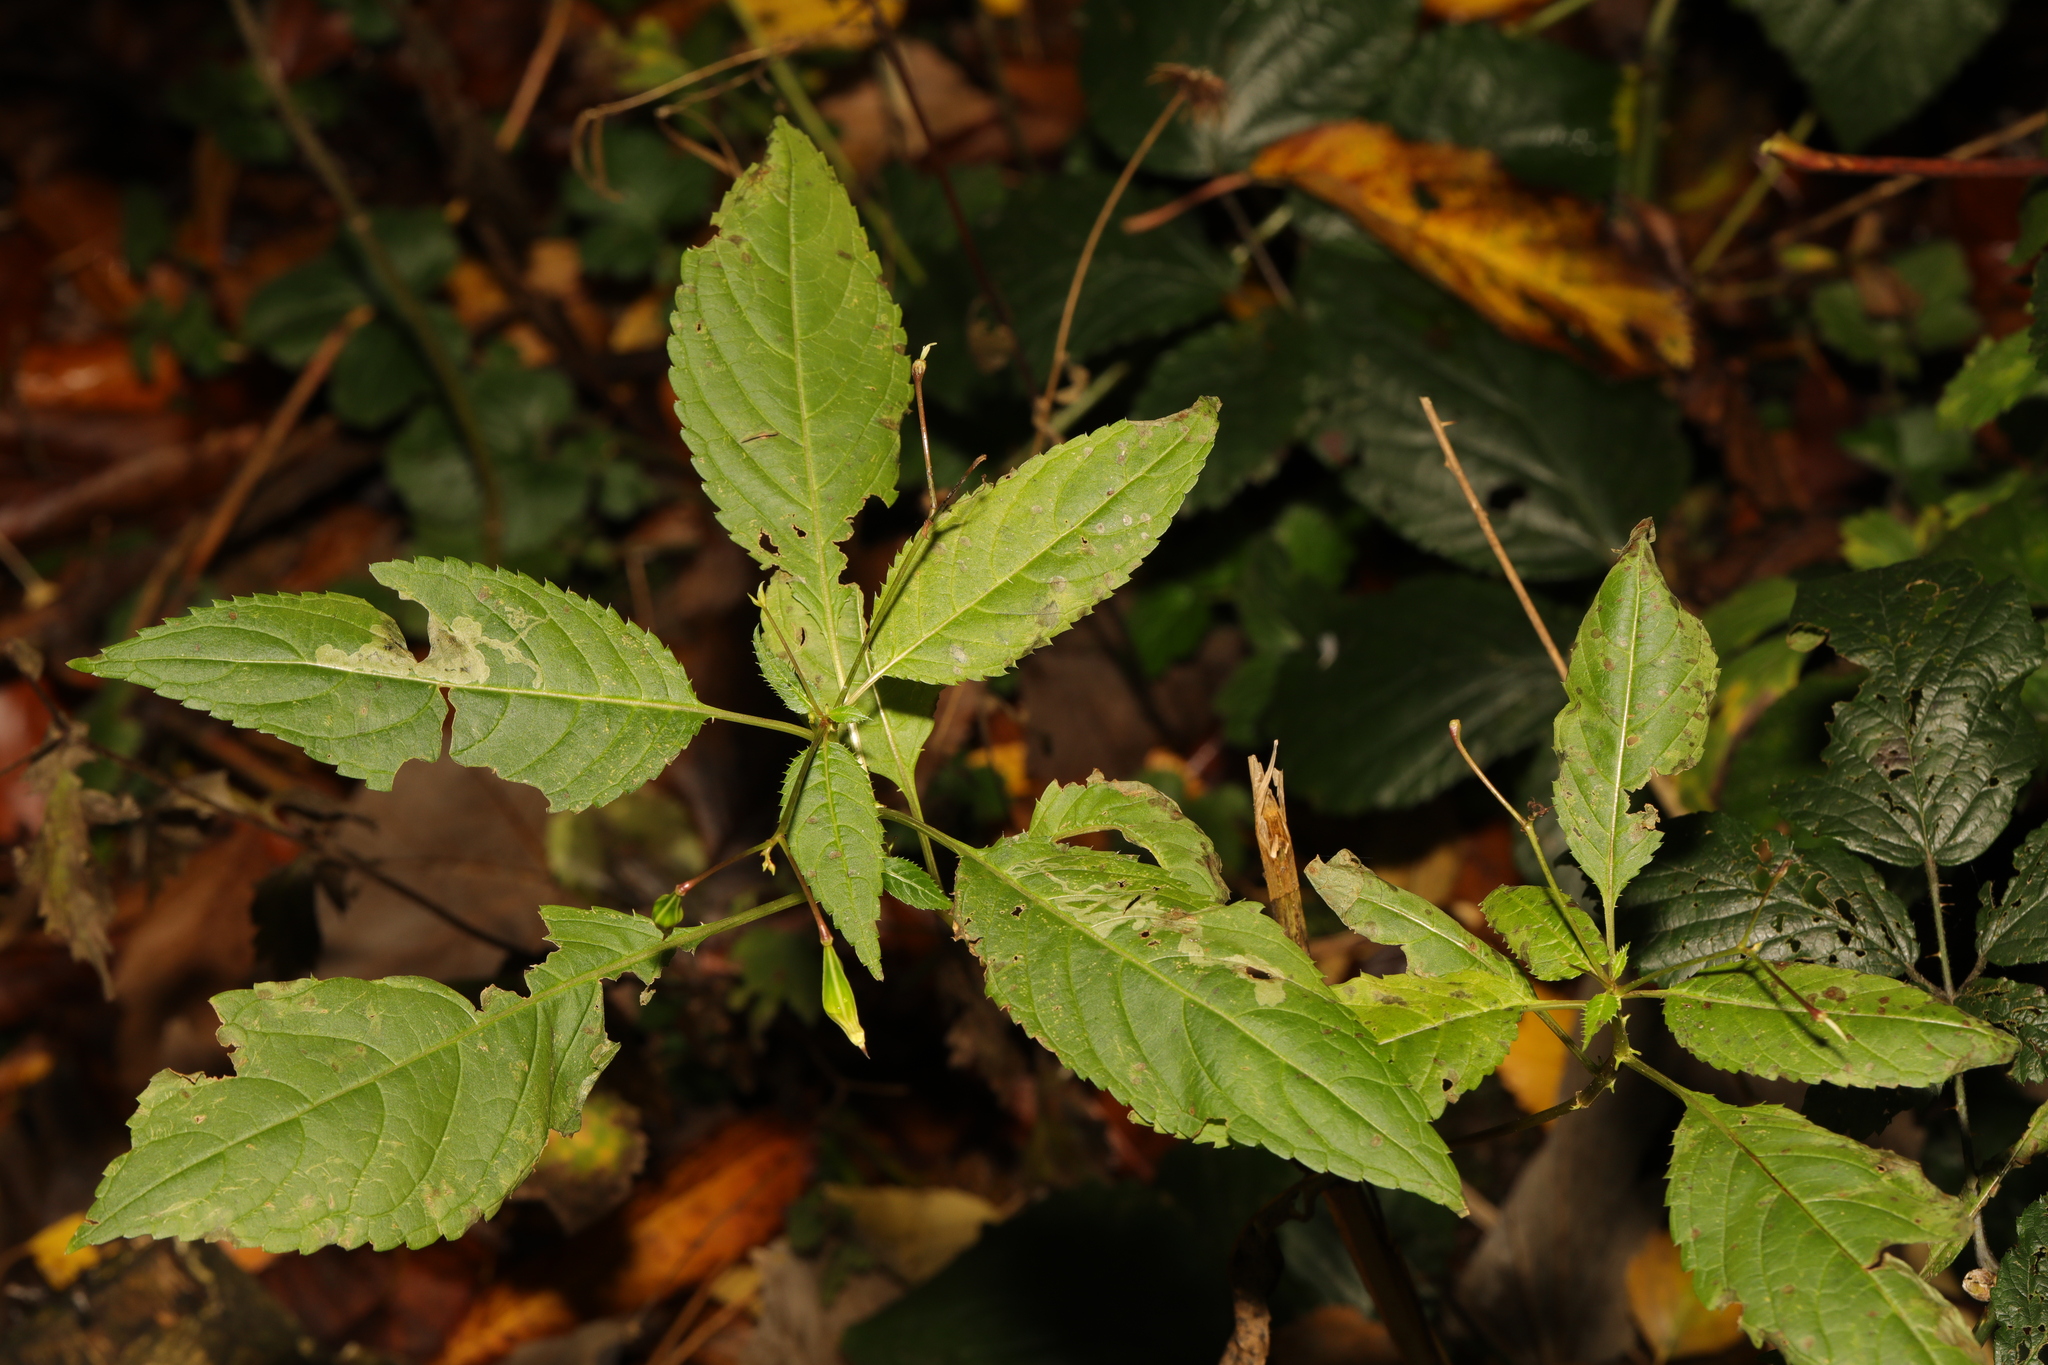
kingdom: Plantae
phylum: Tracheophyta
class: Magnoliopsida
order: Ericales
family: Balsaminaceae
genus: Impatiens
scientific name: Impatiens glandulifera
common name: Himalayan balsam
